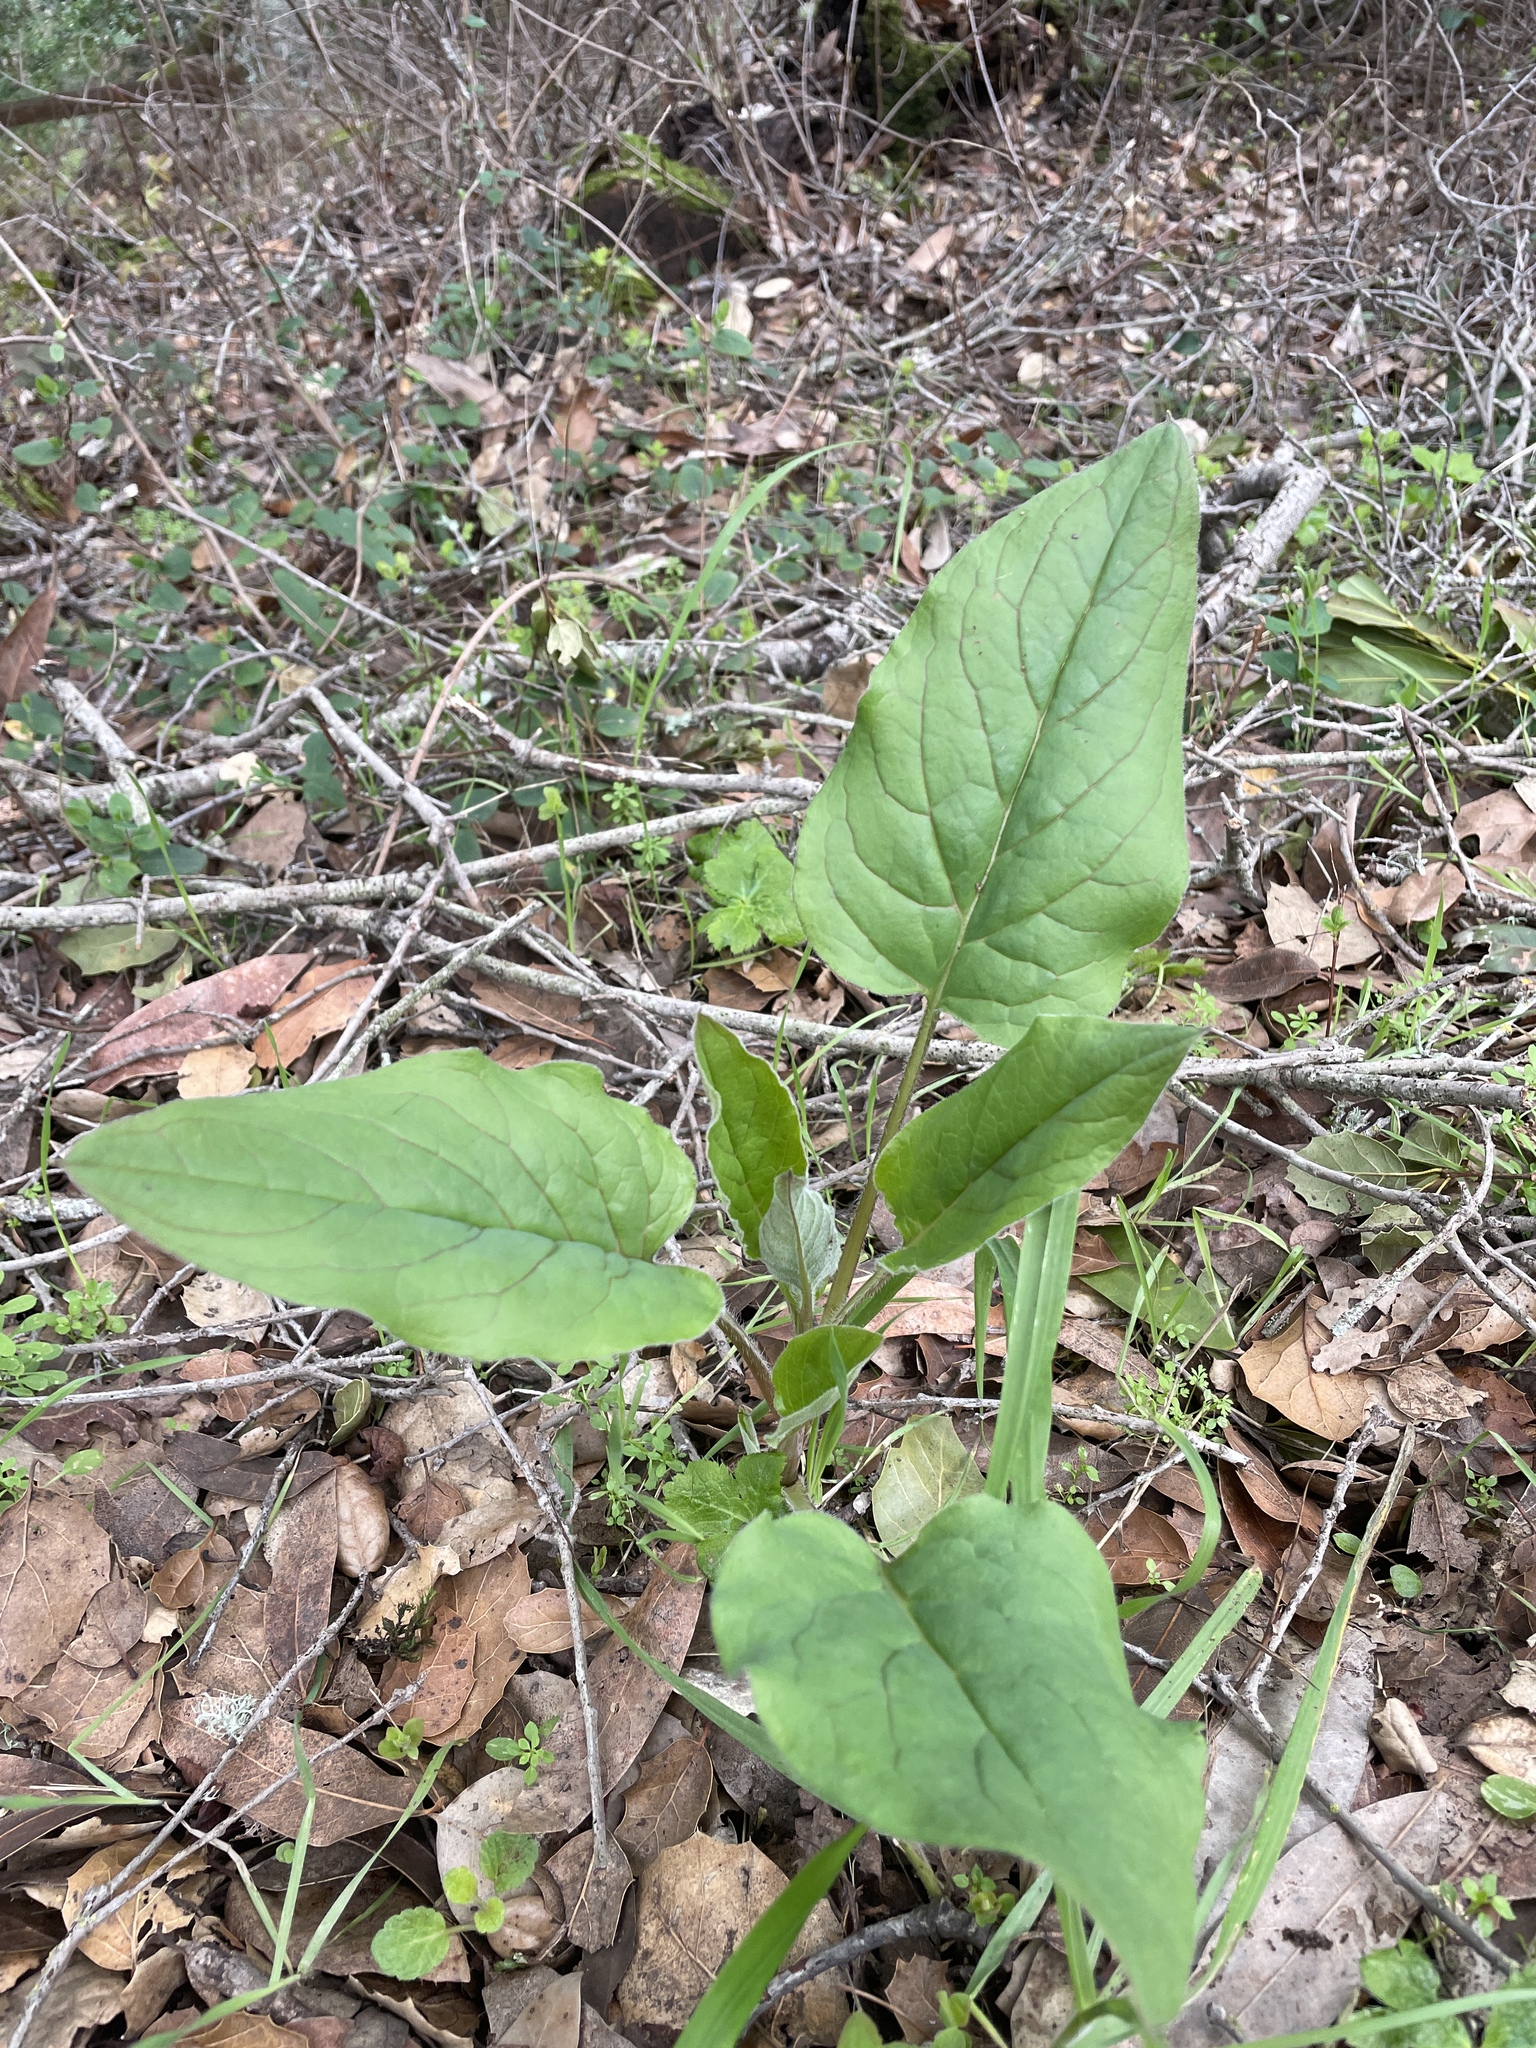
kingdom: Plantae
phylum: Tracheophyta
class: Magnoliopsida
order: Boraginales
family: Boraginaceae
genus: Adelinia
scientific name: Adelinia grande
